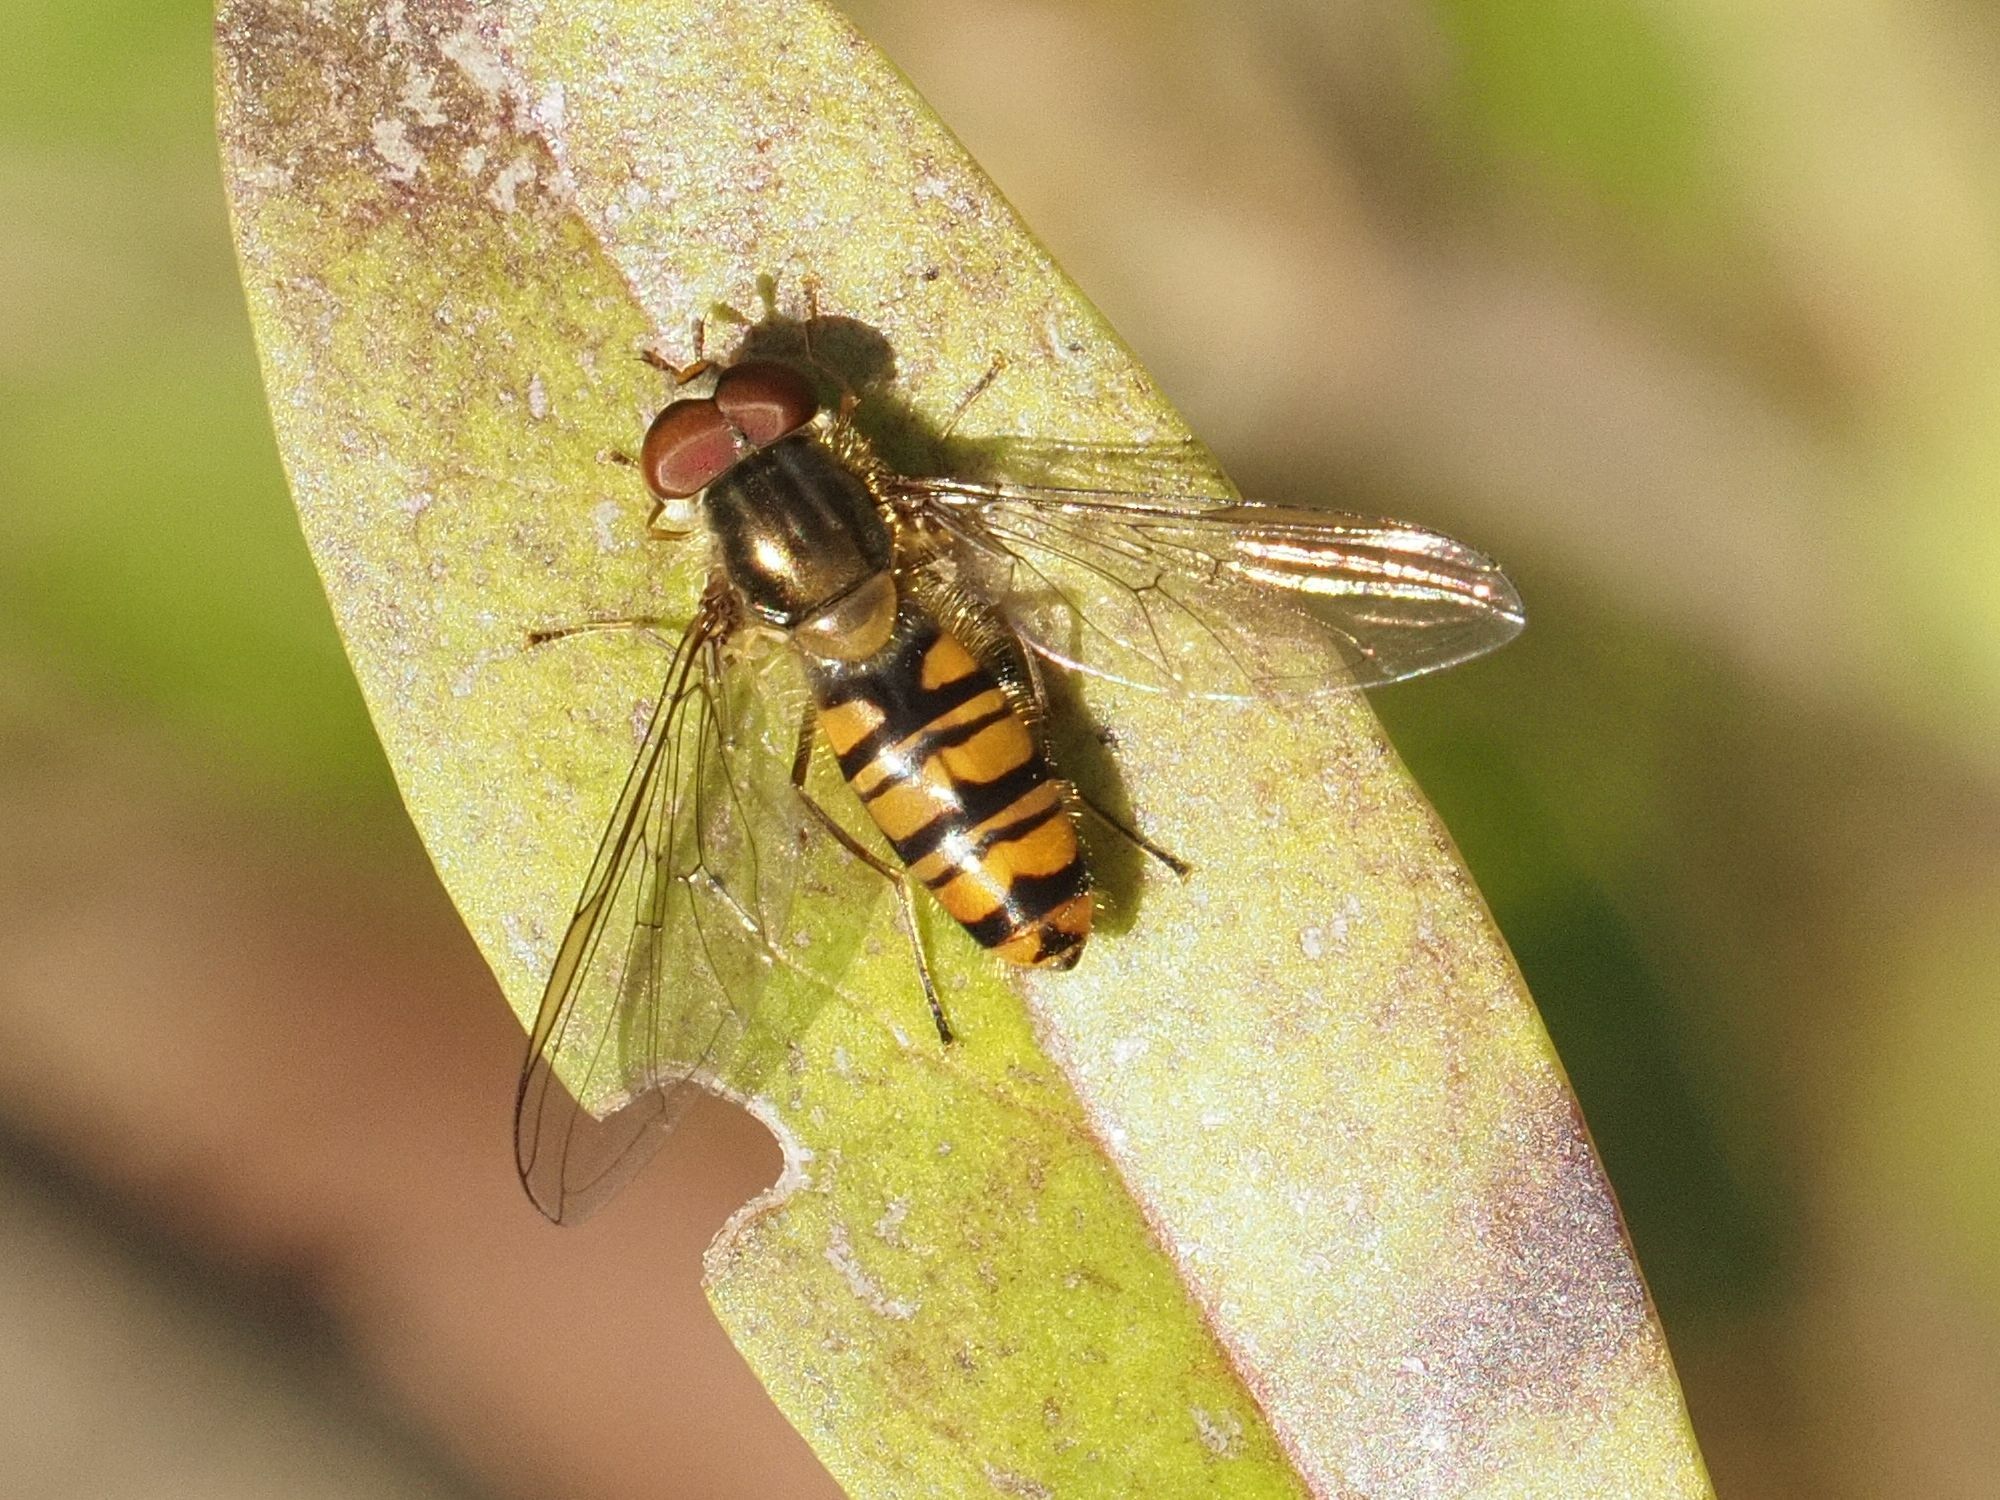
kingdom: Animalia
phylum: Arthropoda
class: Insecta
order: Diptera
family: Syrphidae
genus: Episyrphus
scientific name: Episyrphus balteatus
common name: Marmalade hoverfly
